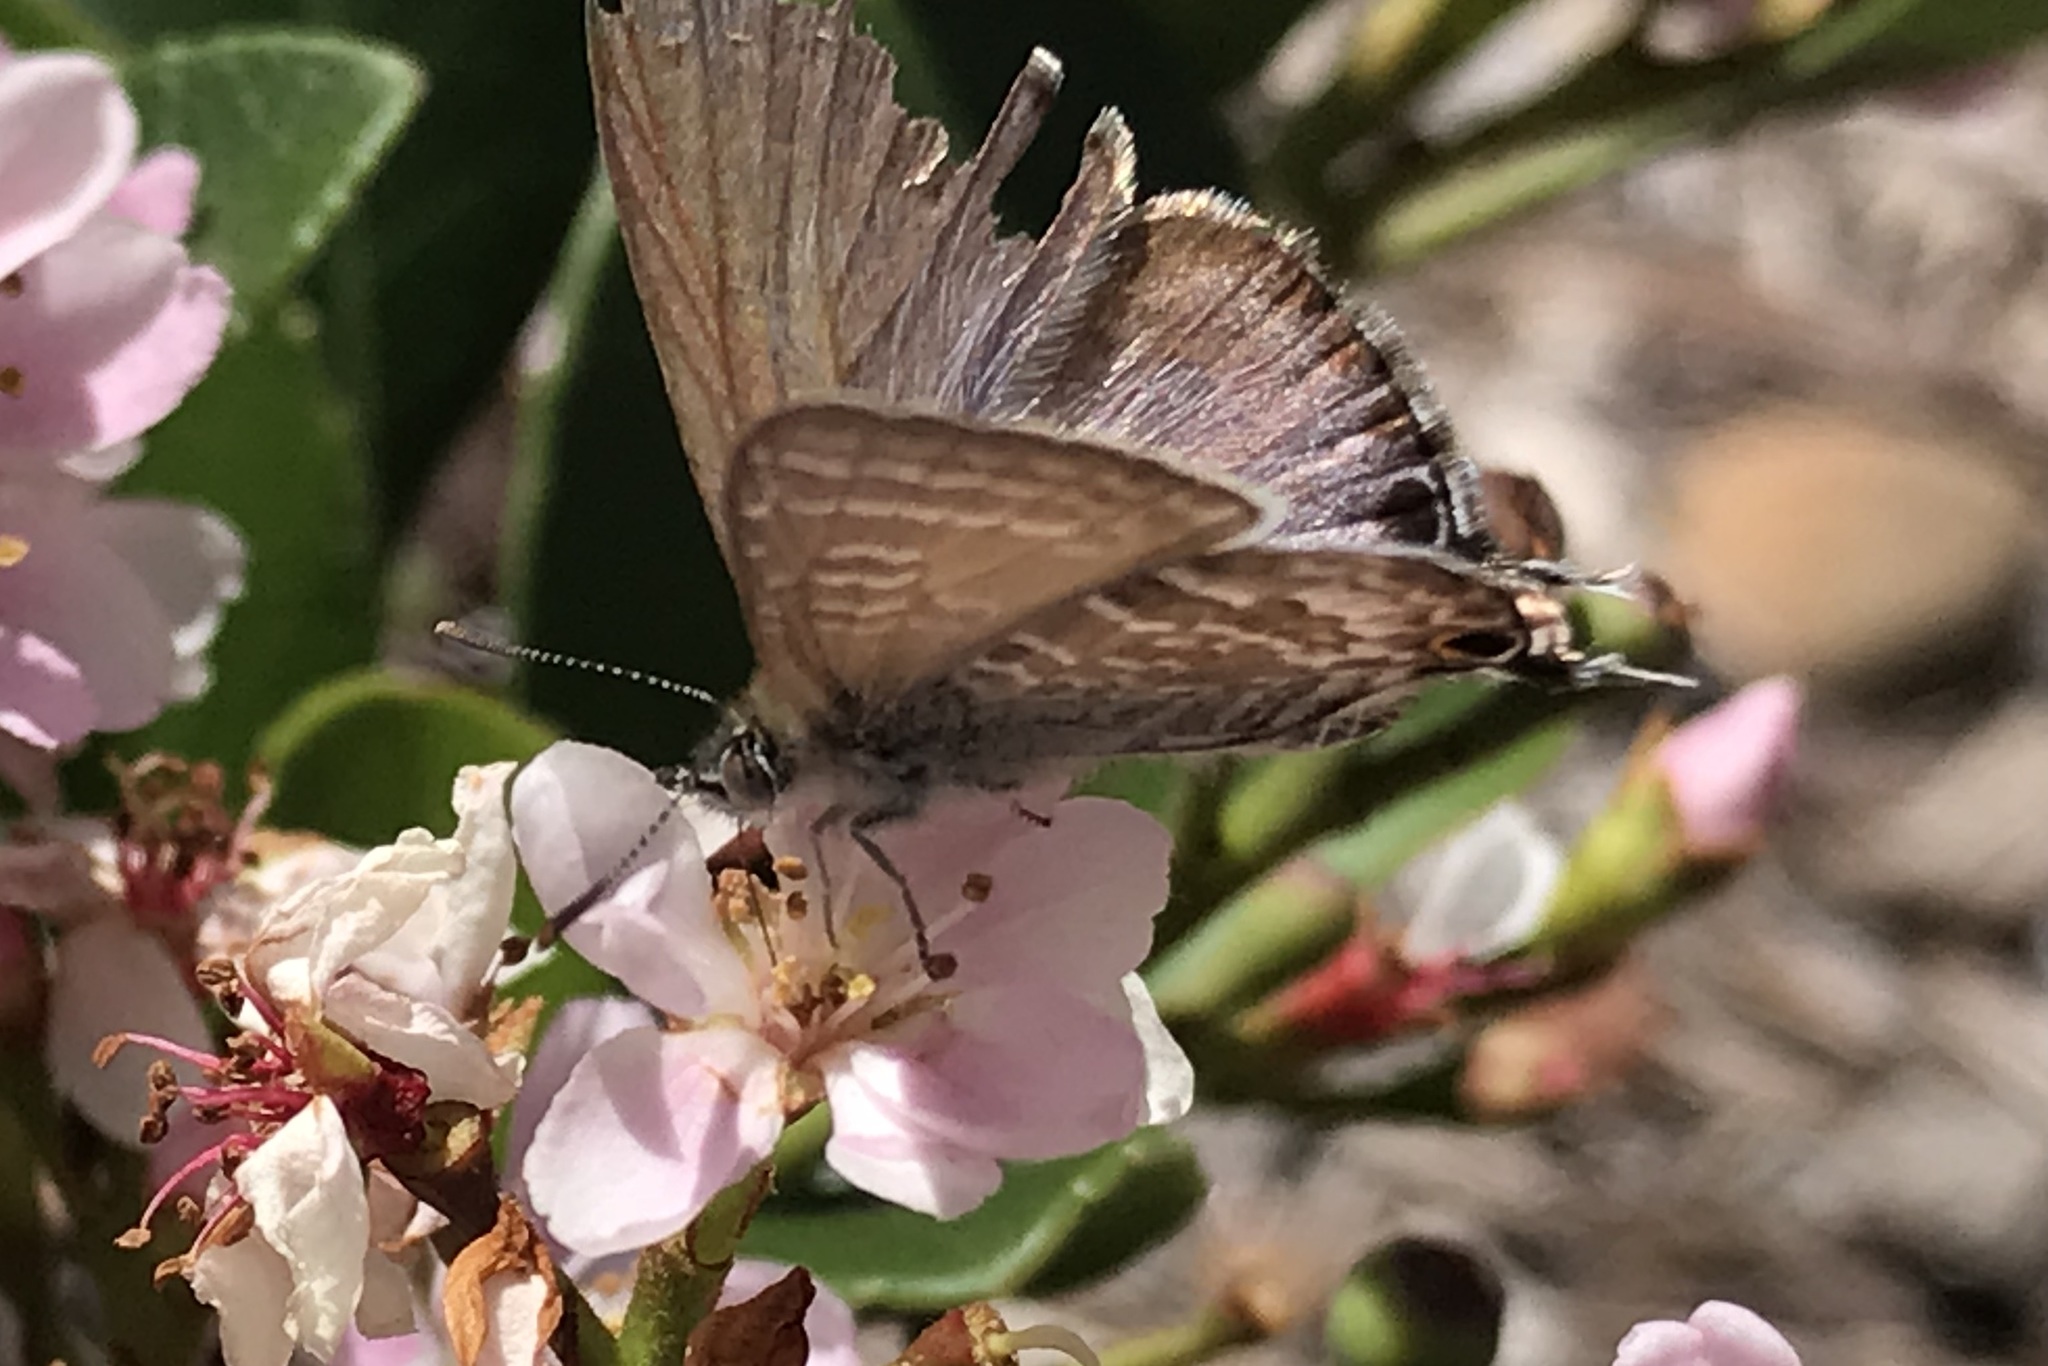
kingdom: Animalia
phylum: Arthropoda
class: Insecta
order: Lepidoptera
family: Lycaenidae
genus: Theclinesthes
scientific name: Theclinesthes onycha
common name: Cycad blue
